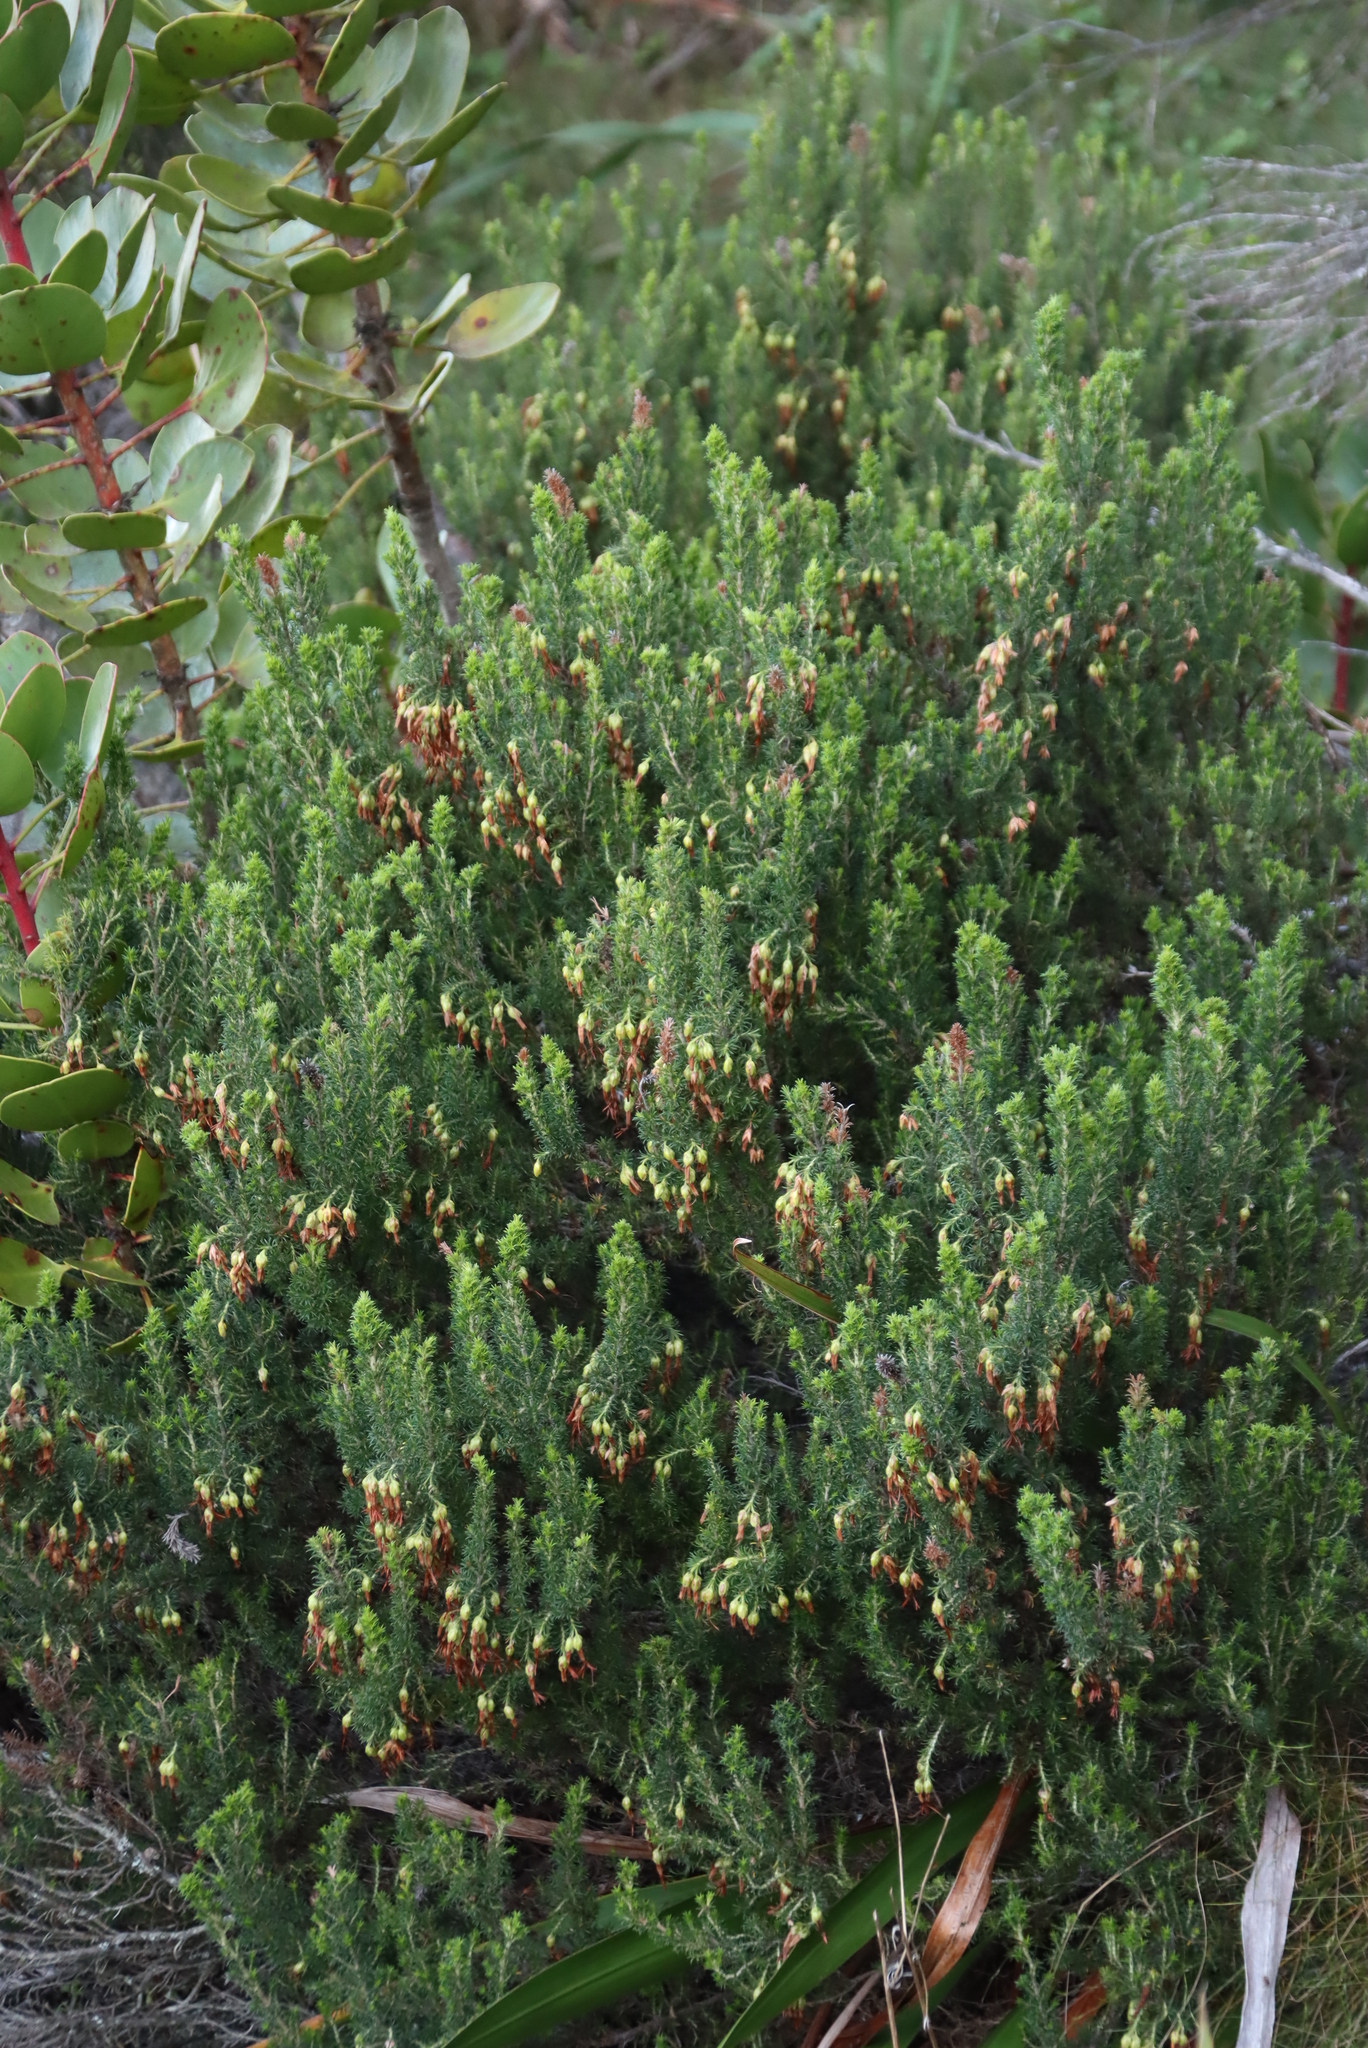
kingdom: Plantae
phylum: Tracheophyta
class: Magnoliopsida
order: Ericales
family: Ericaceae
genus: Erica
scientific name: Erica coccinea
